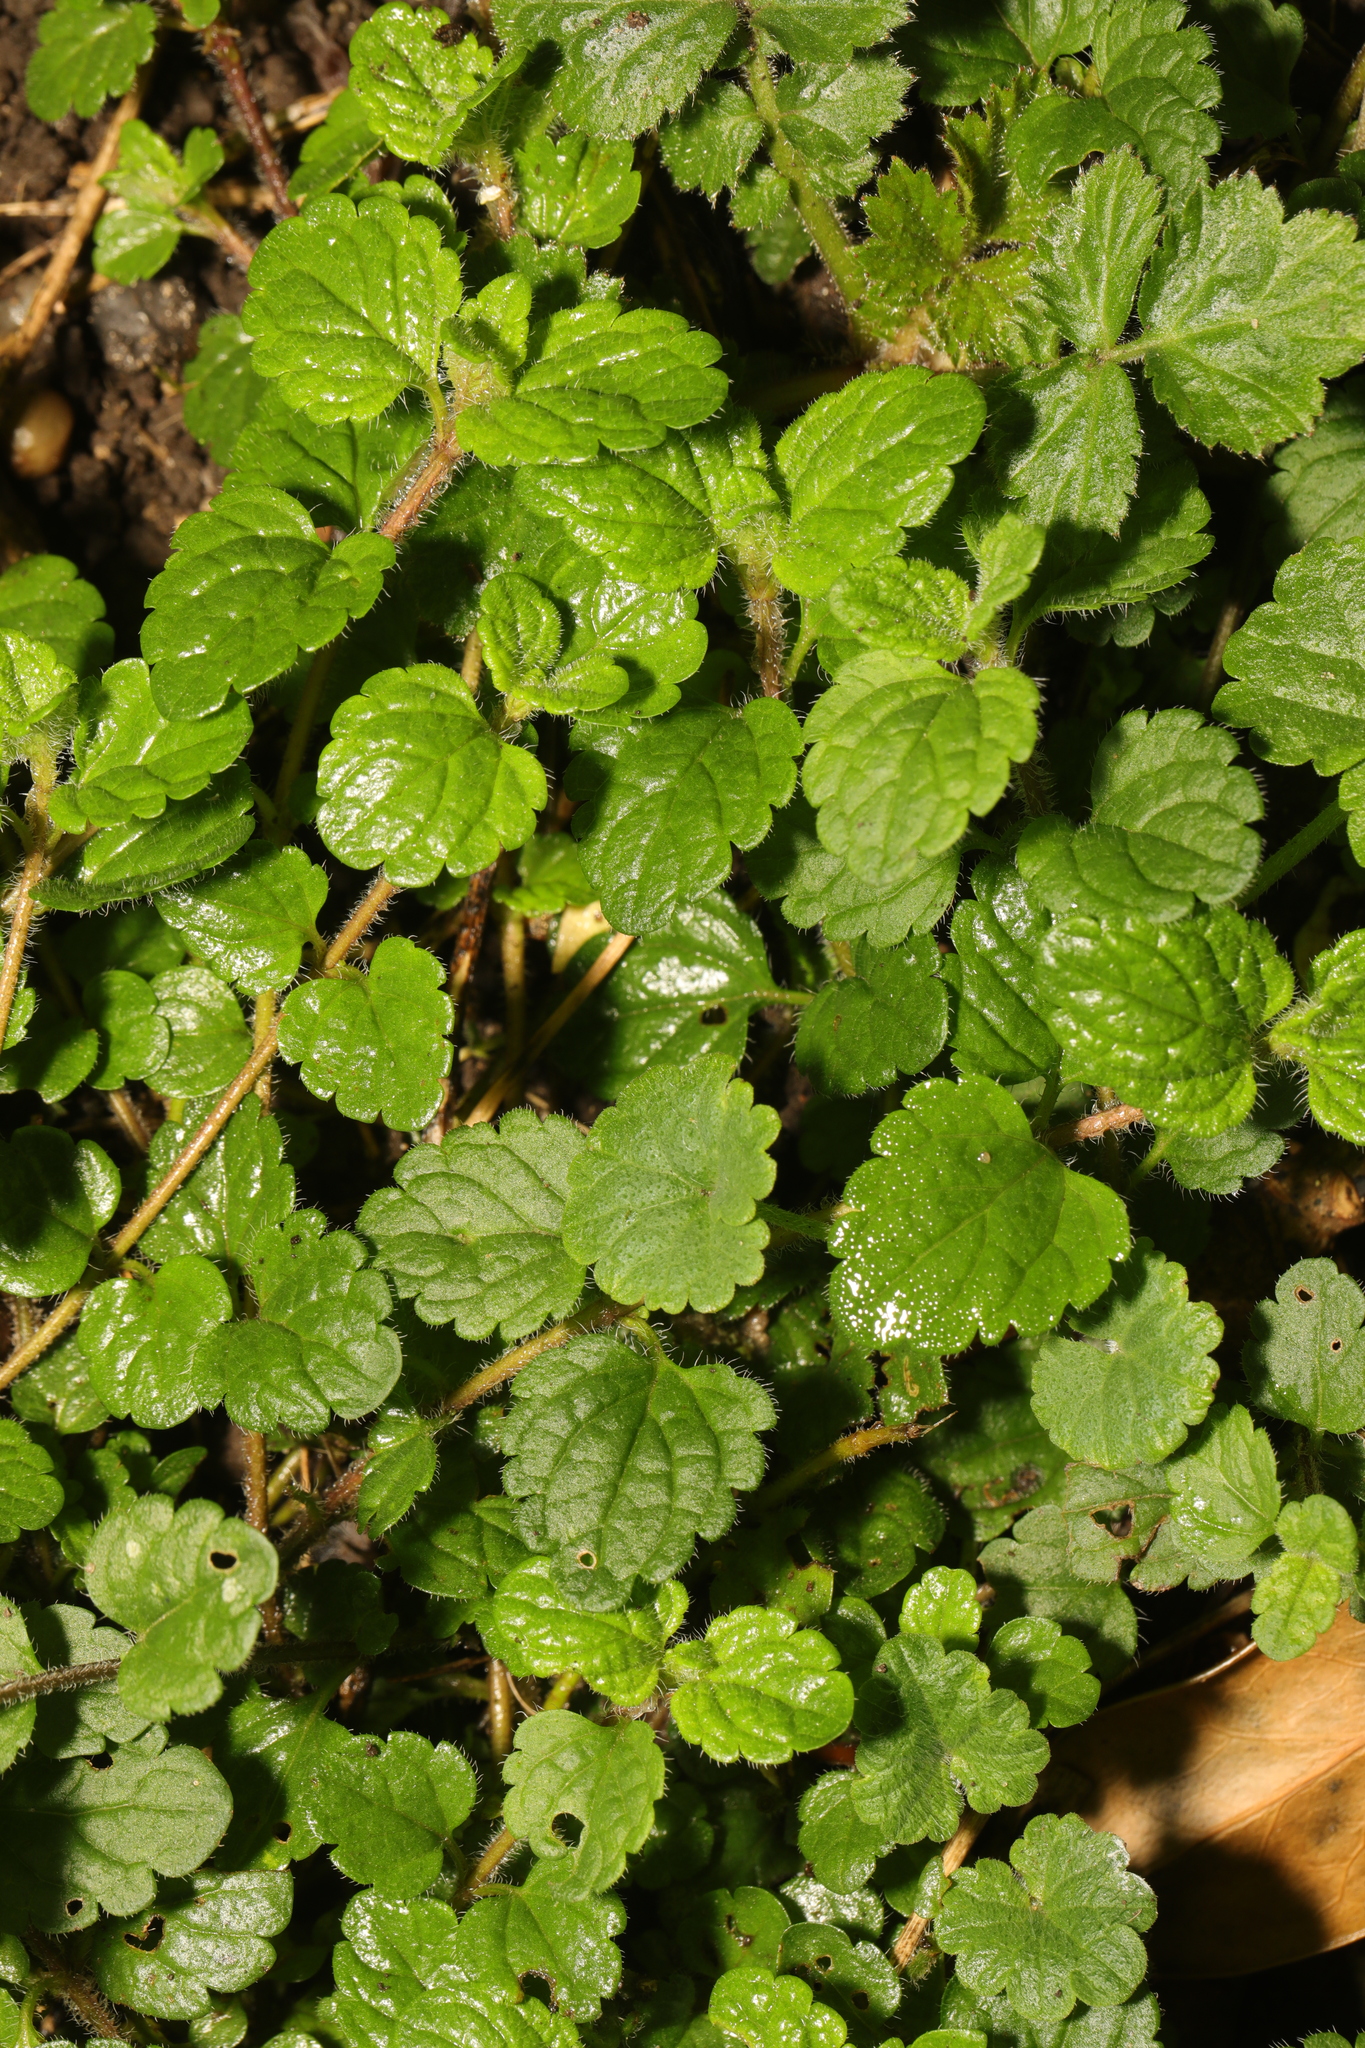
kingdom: Plantae
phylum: Tracheophyta
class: Magnoliopsida
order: Lamiales
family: Lamiaceae
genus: Glechoma
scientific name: Glechoma hederacea
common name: Ground ivy
